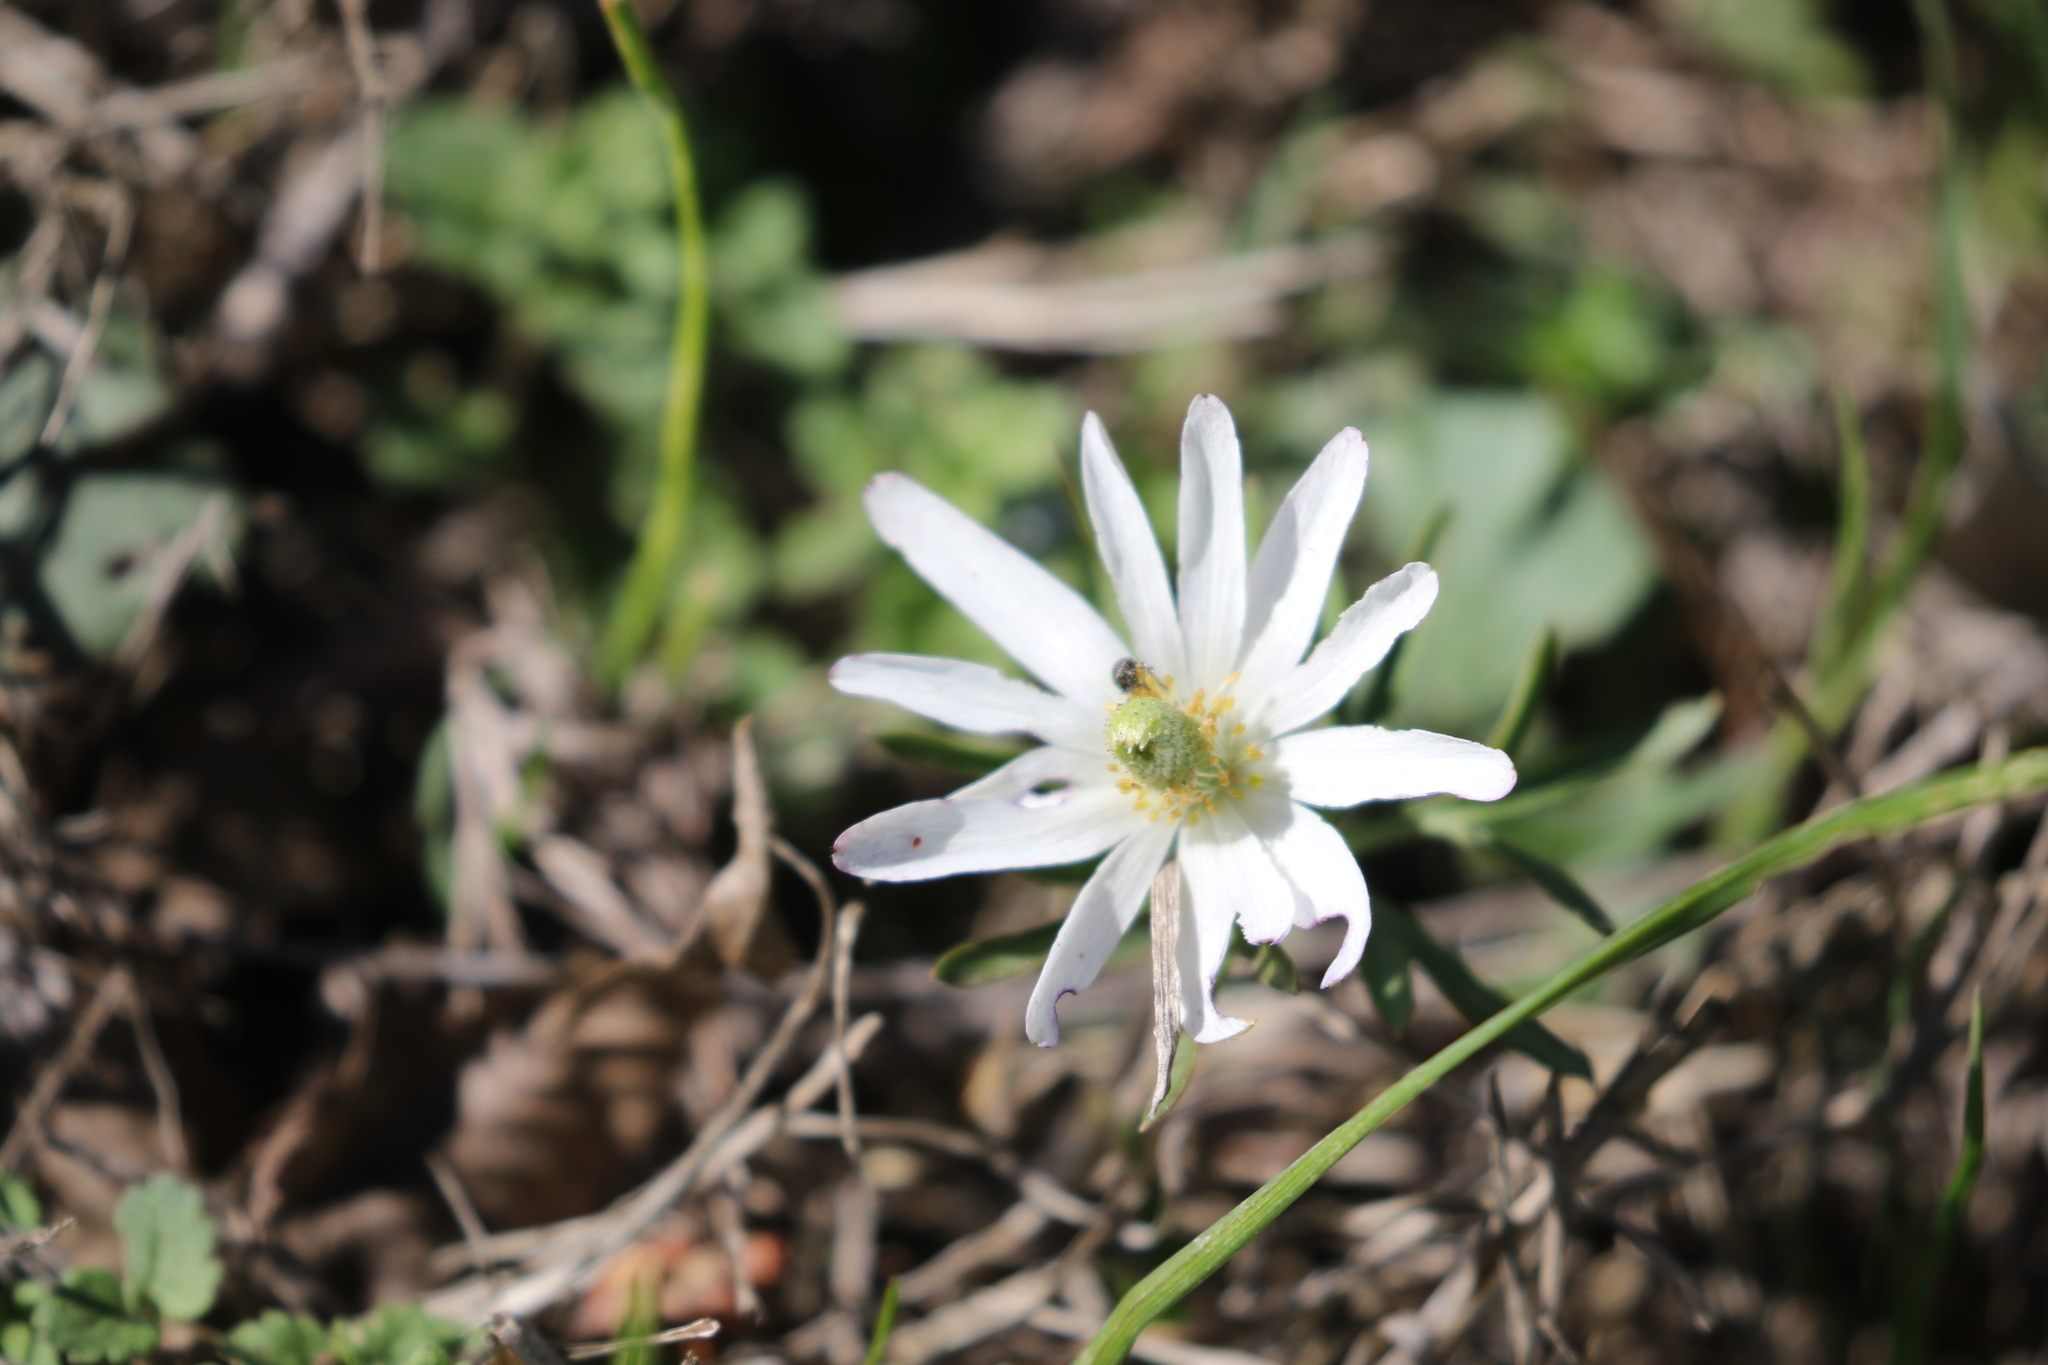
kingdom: Plantae
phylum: Tracheophyta
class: Magnoliopsida
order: Ranunculales
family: Ranunculaceae
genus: Anemone
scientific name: Anemone berlandieri
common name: Ten-petal anemone
